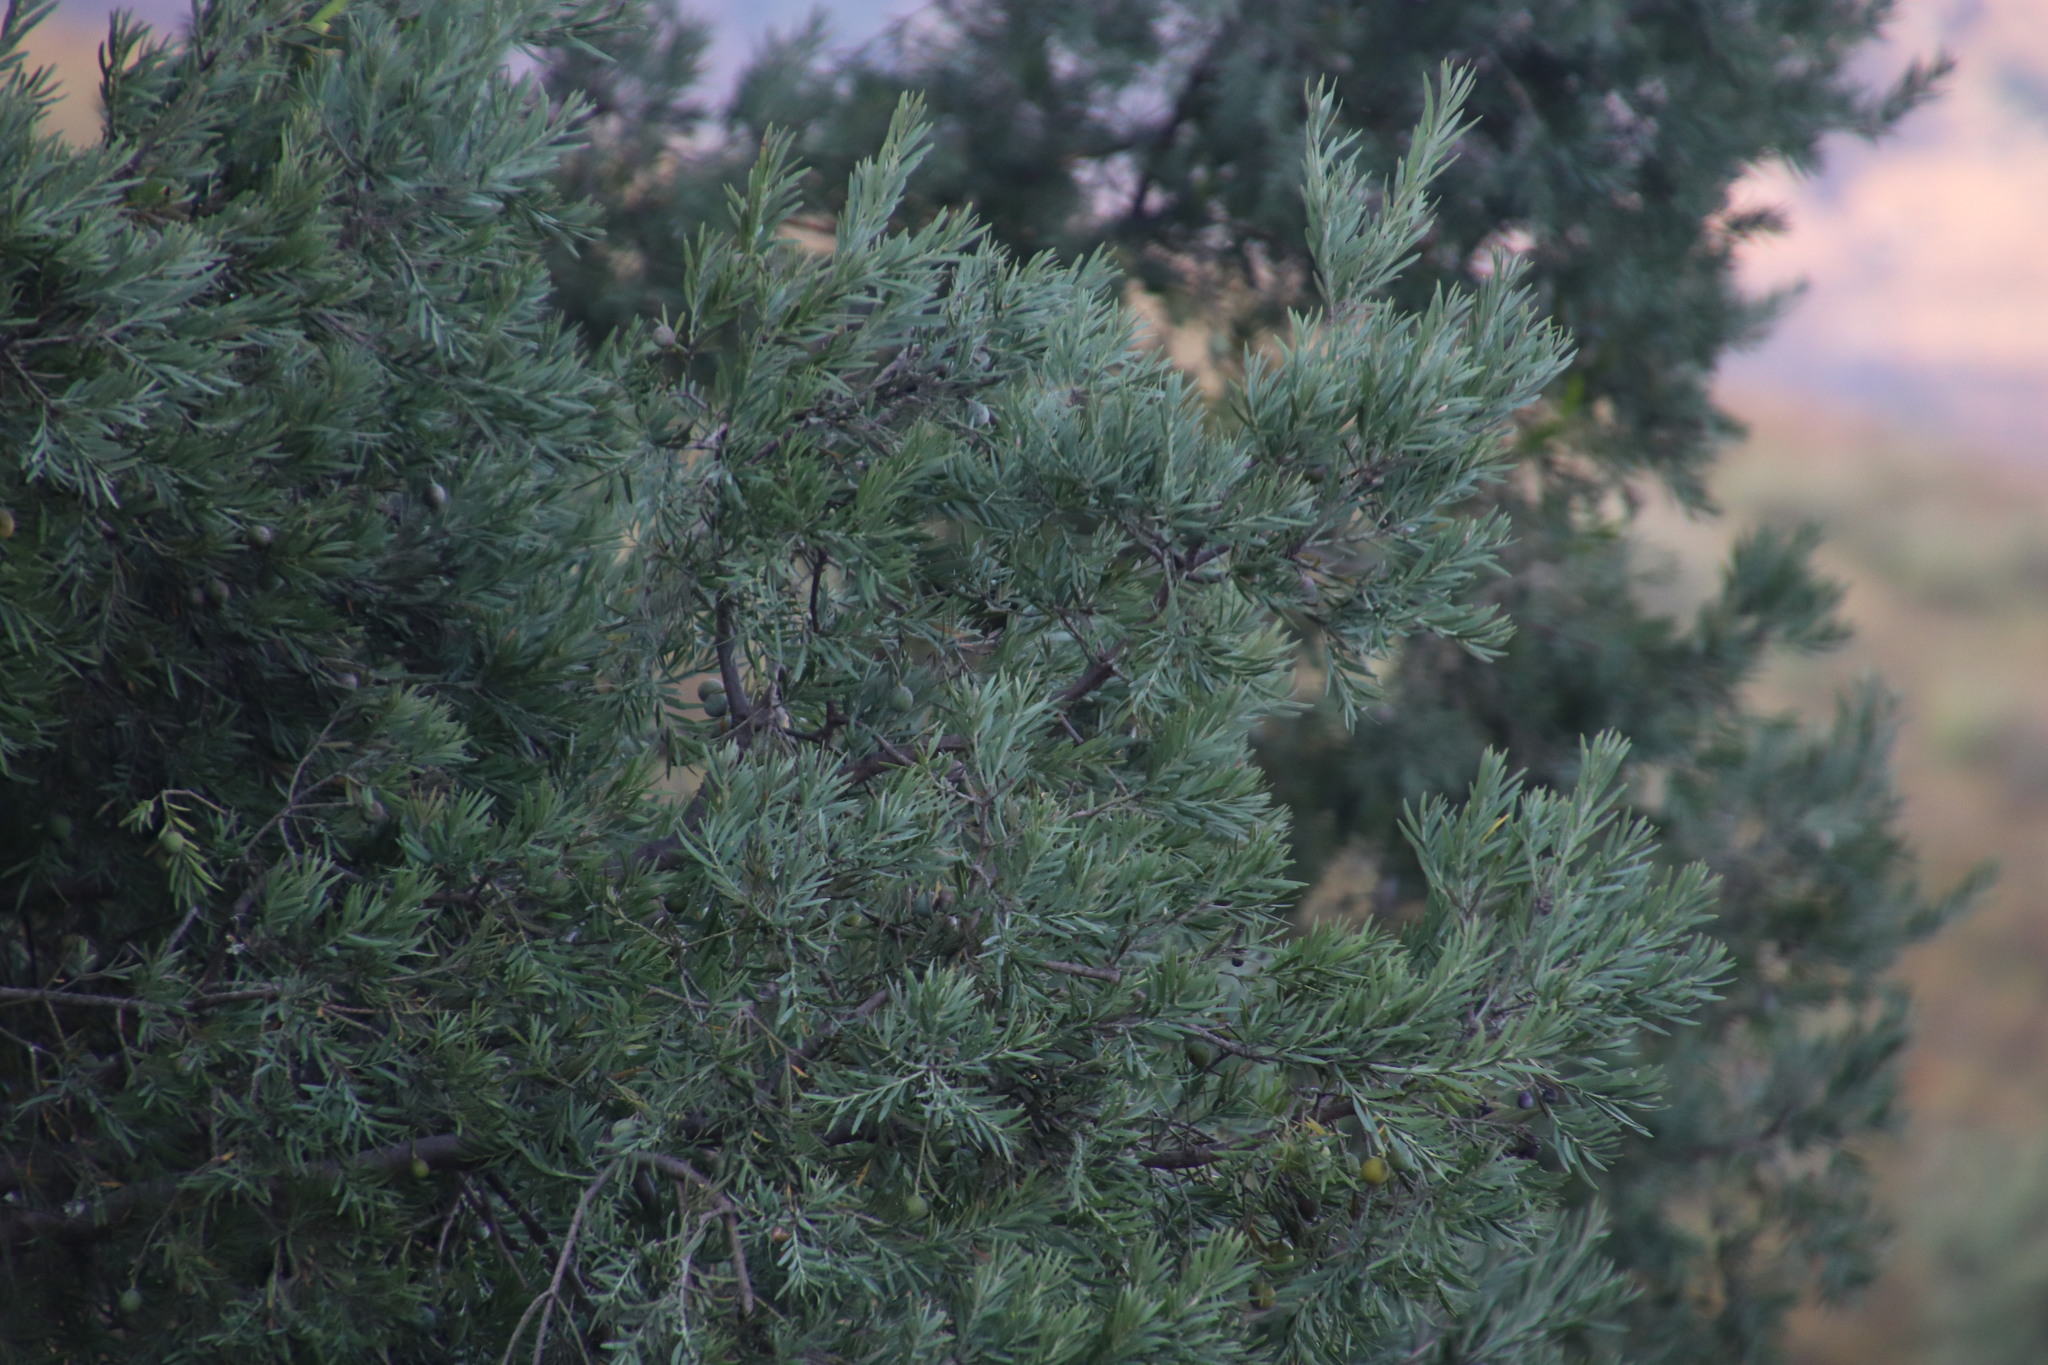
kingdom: Plantae
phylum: Tracheophyta
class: Pinopsida
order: Pinales
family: Podocarpaceae
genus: Afrocarpus
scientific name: Afrocarpus falcatus
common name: Bastard yellowwood
